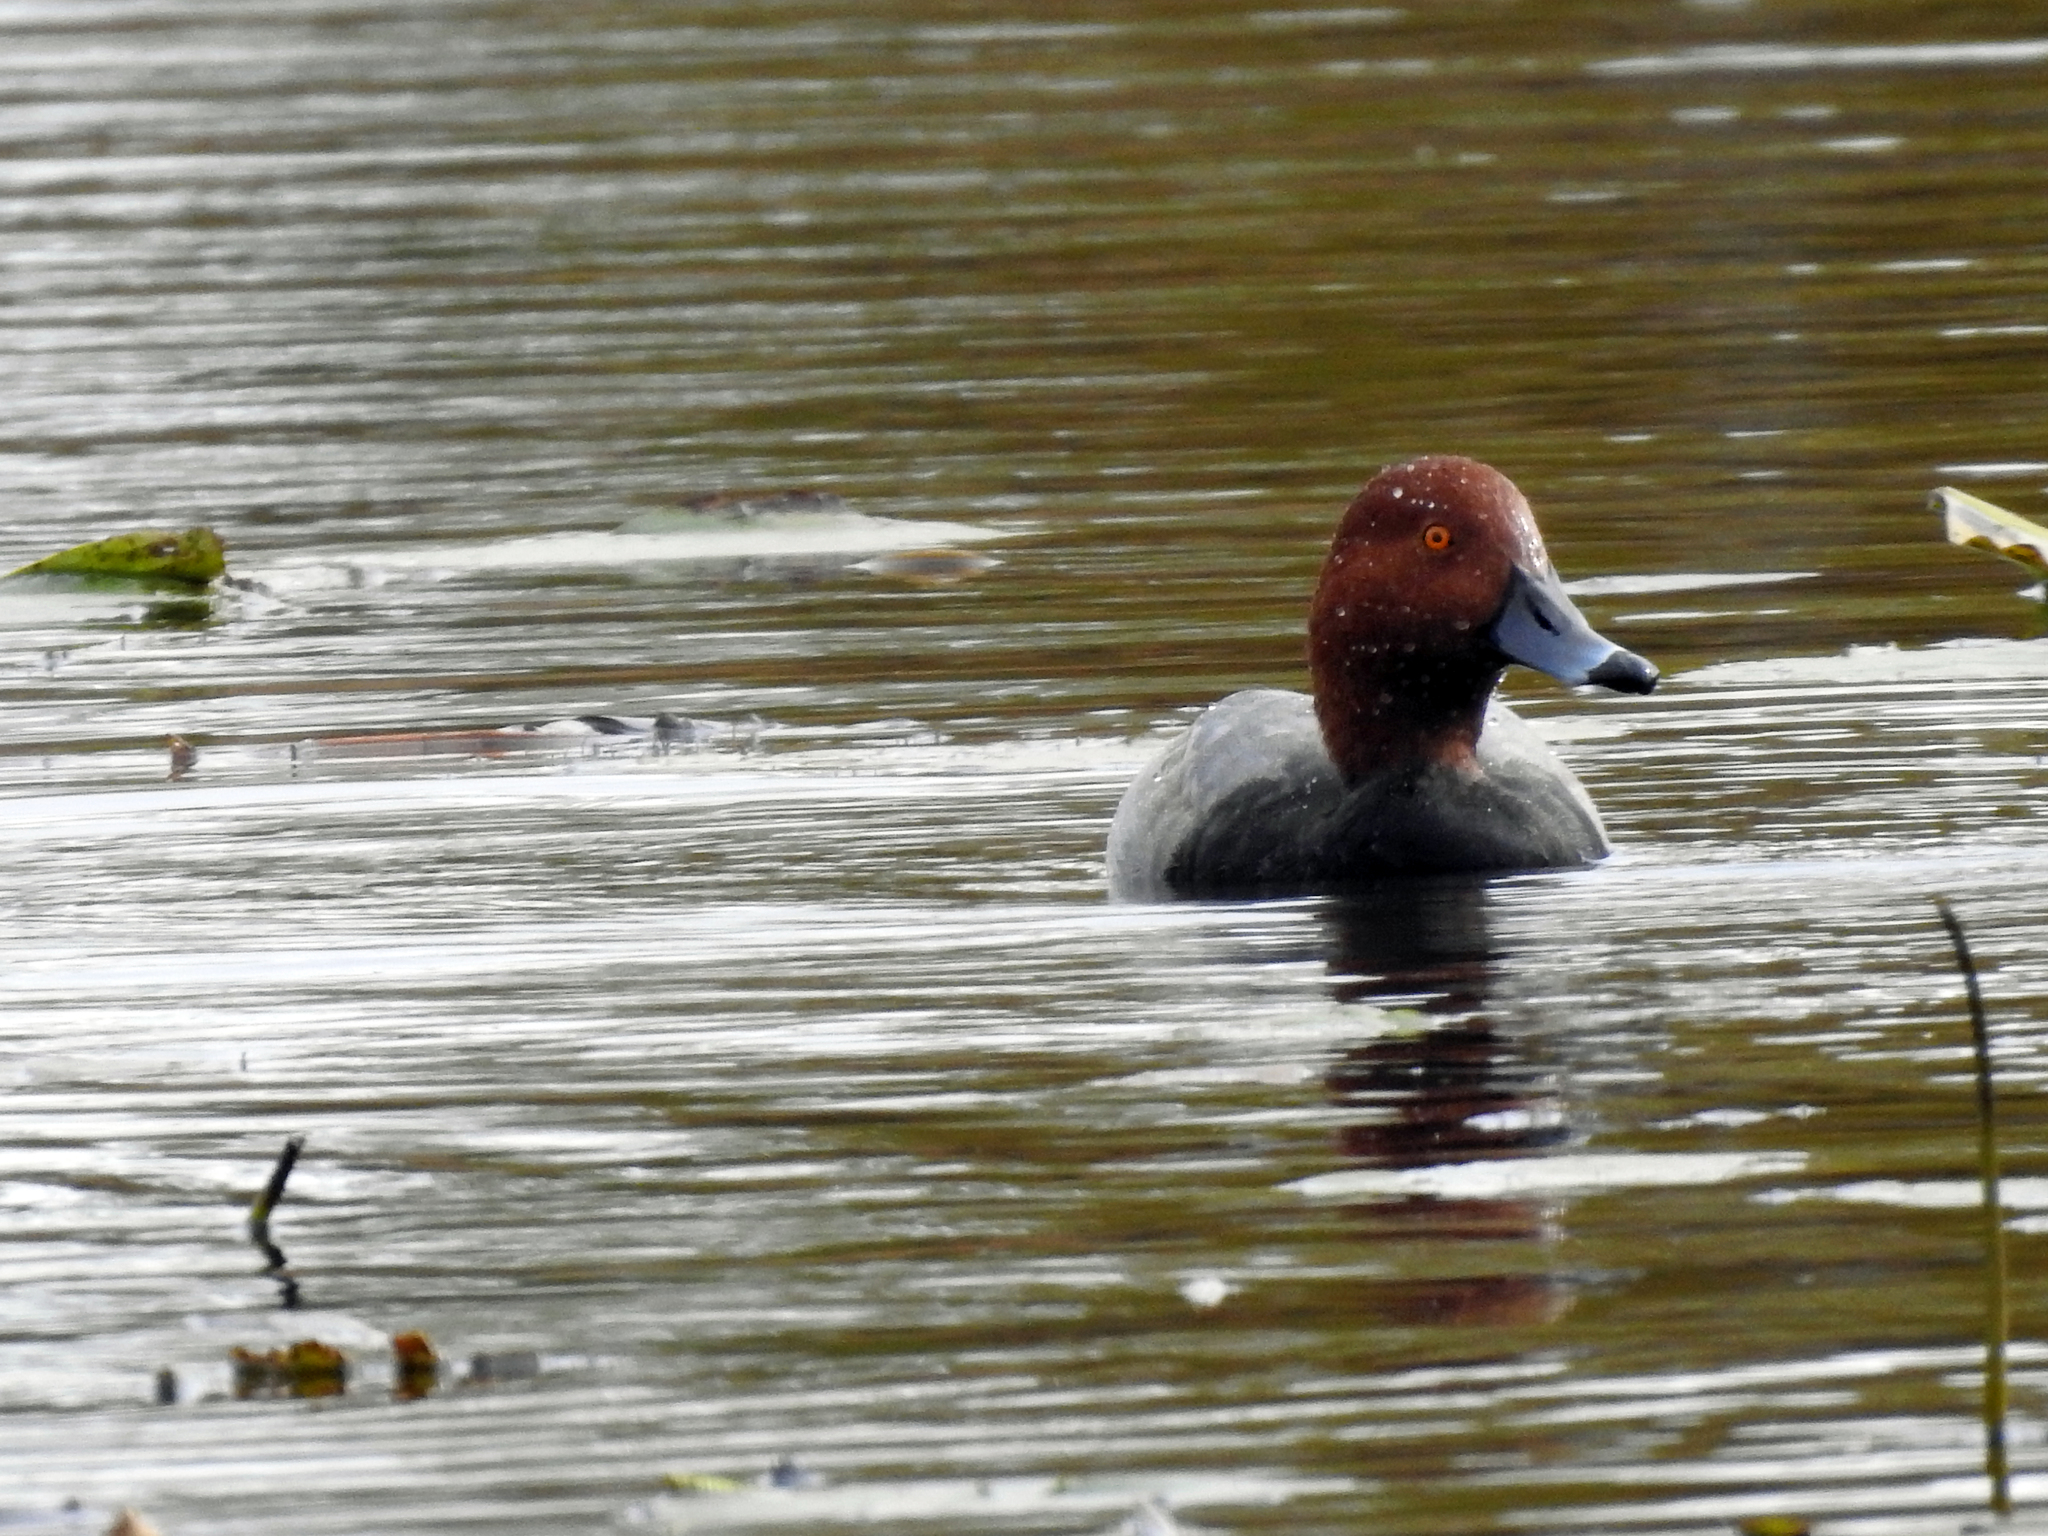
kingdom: Animalia
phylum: Chordata
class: Aves
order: Anseriformes
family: Anatidae
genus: Aythya
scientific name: Aythya americana
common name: Redhead
